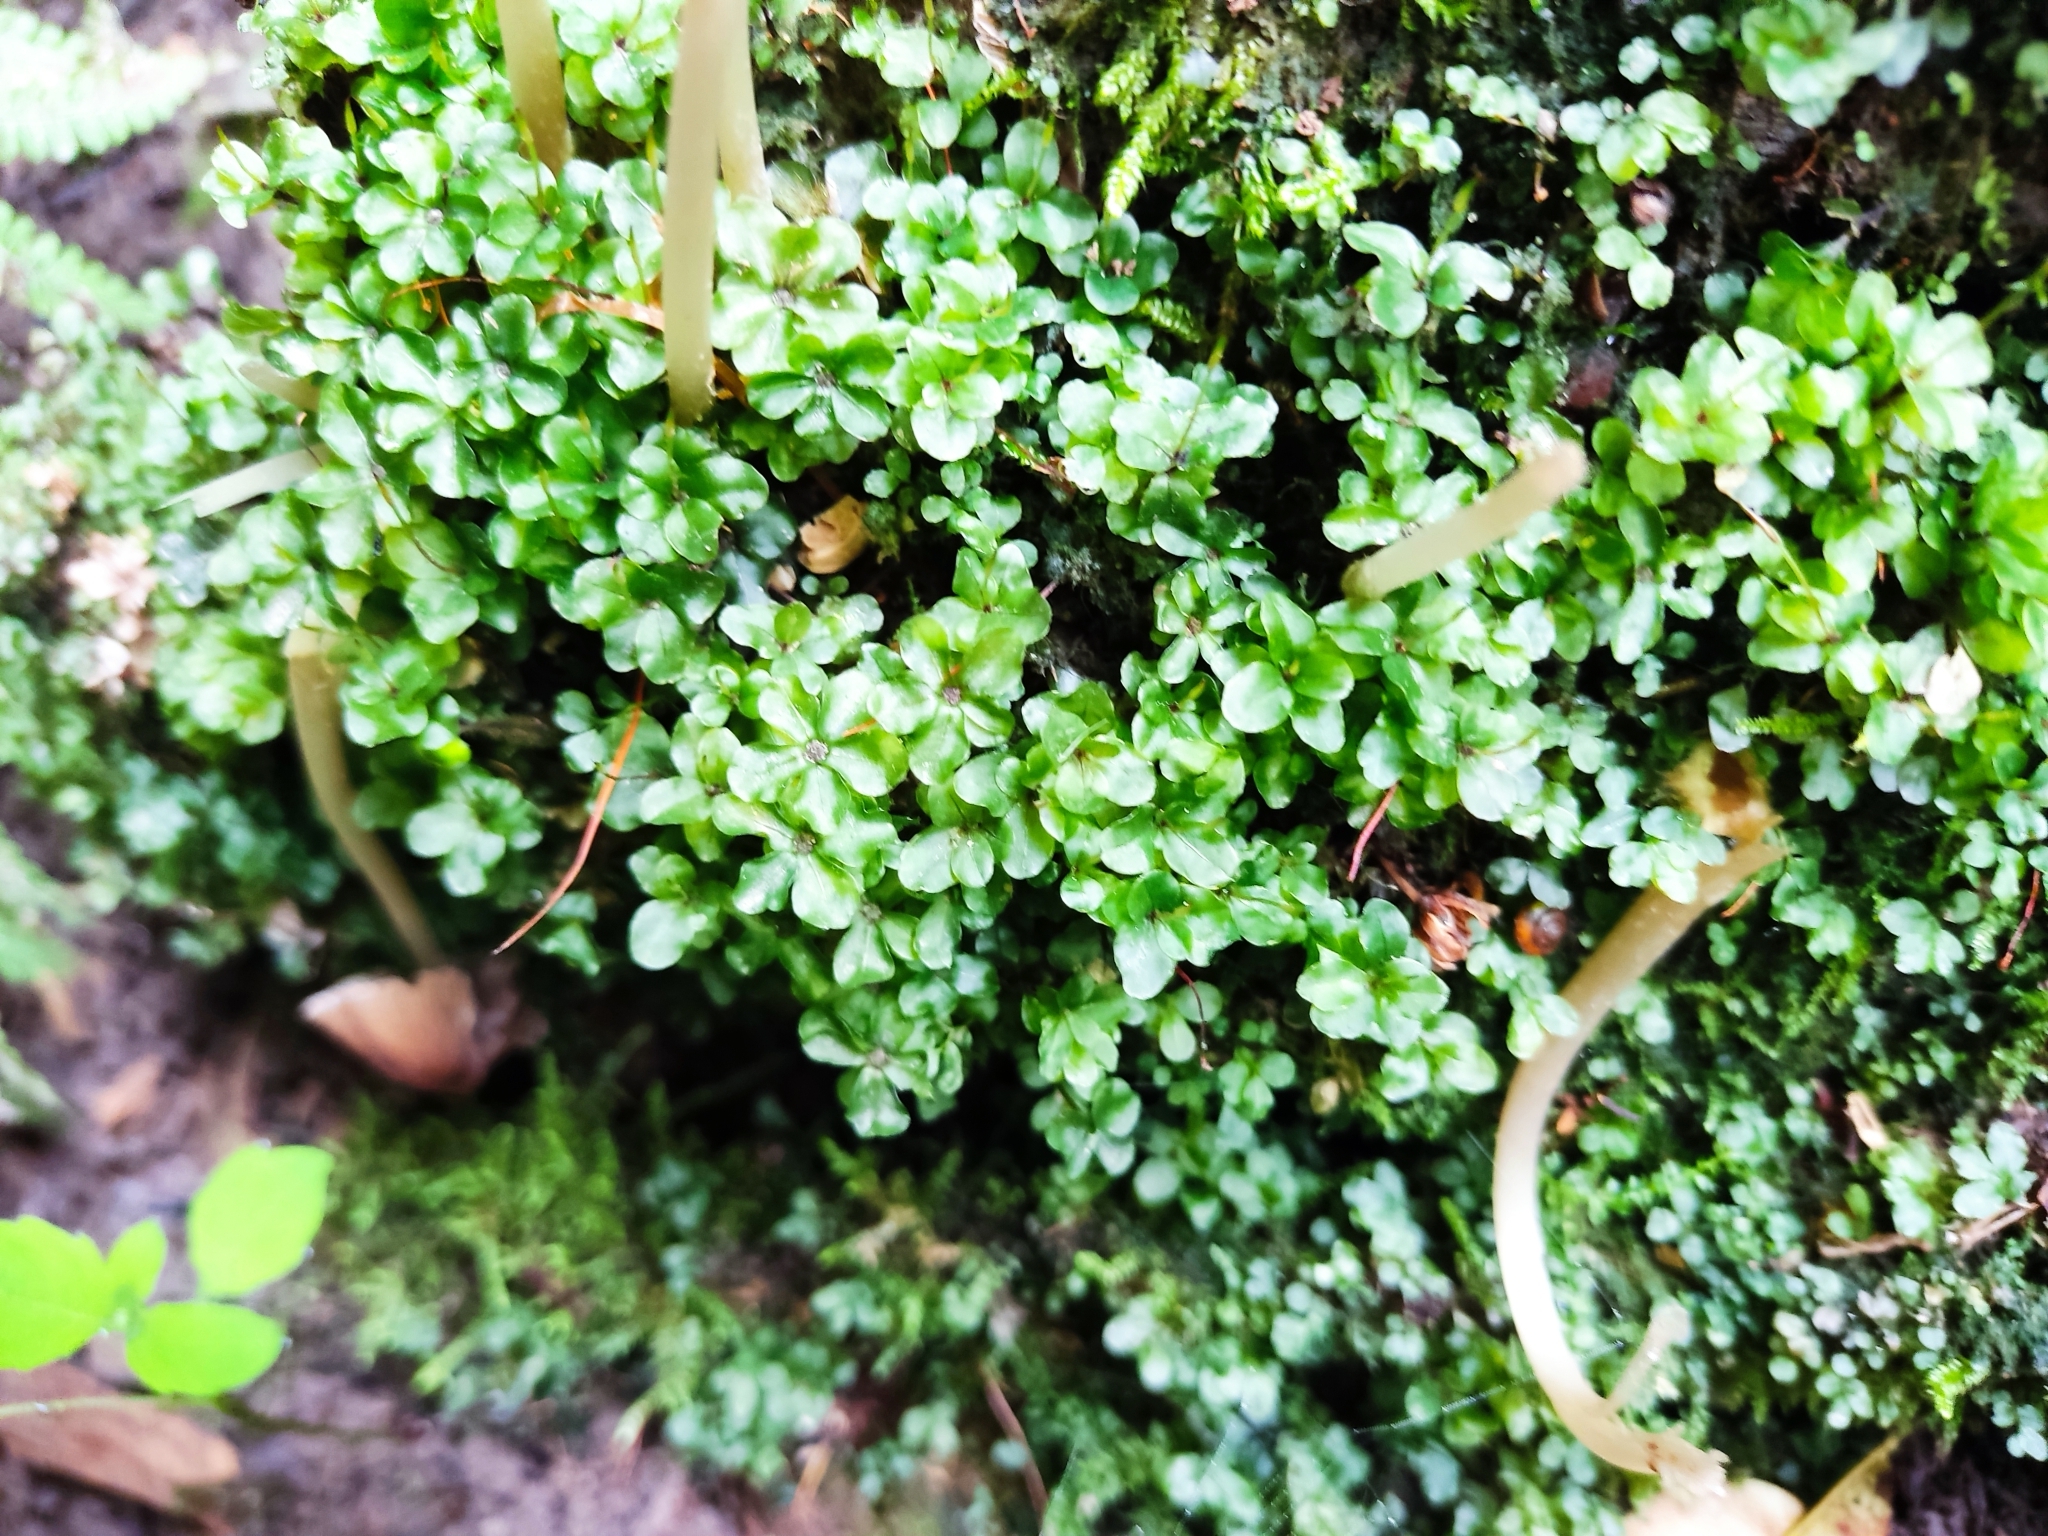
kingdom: Plantae
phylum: Bryophyta
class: Bryopsida
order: Bryales
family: Mniaceae
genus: Rhizomnium
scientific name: Rhizomnium punctatum
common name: Dotted leafy moss
